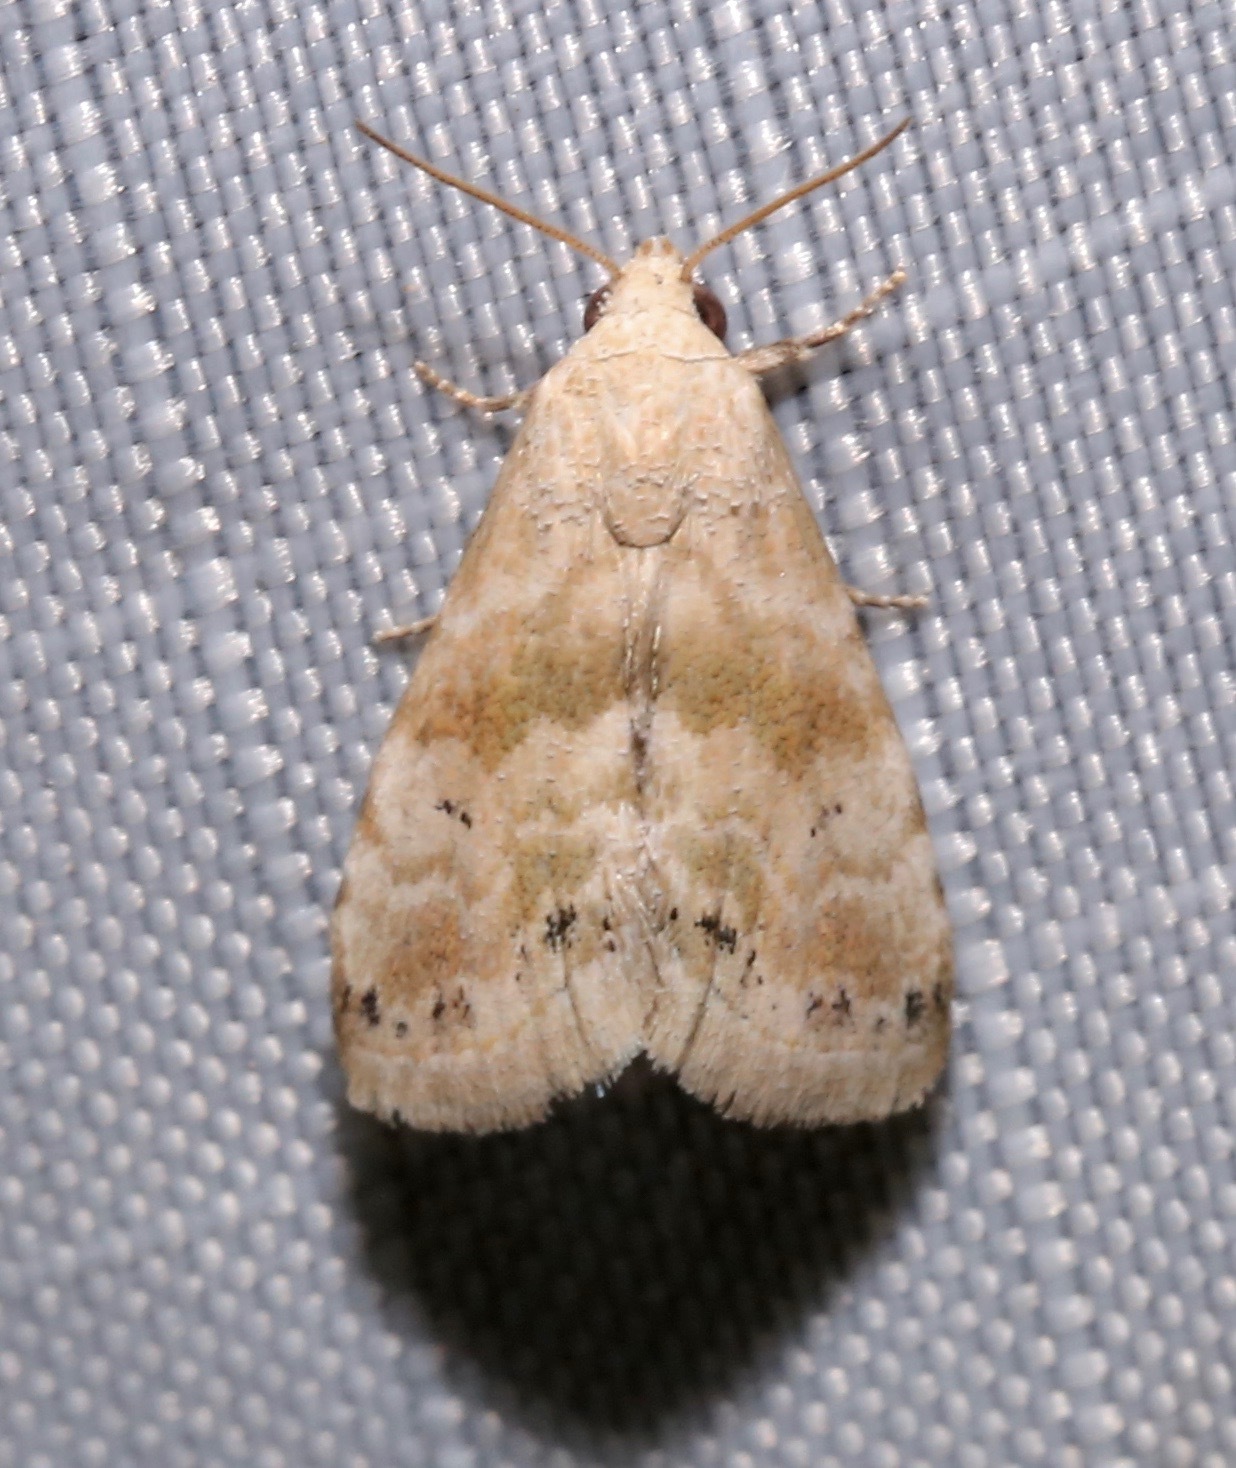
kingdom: Animalia
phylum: Arthropoda
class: Insecta
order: Lepidoptera
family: Noctuidae
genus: Eublemma
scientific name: Eublemma minima
